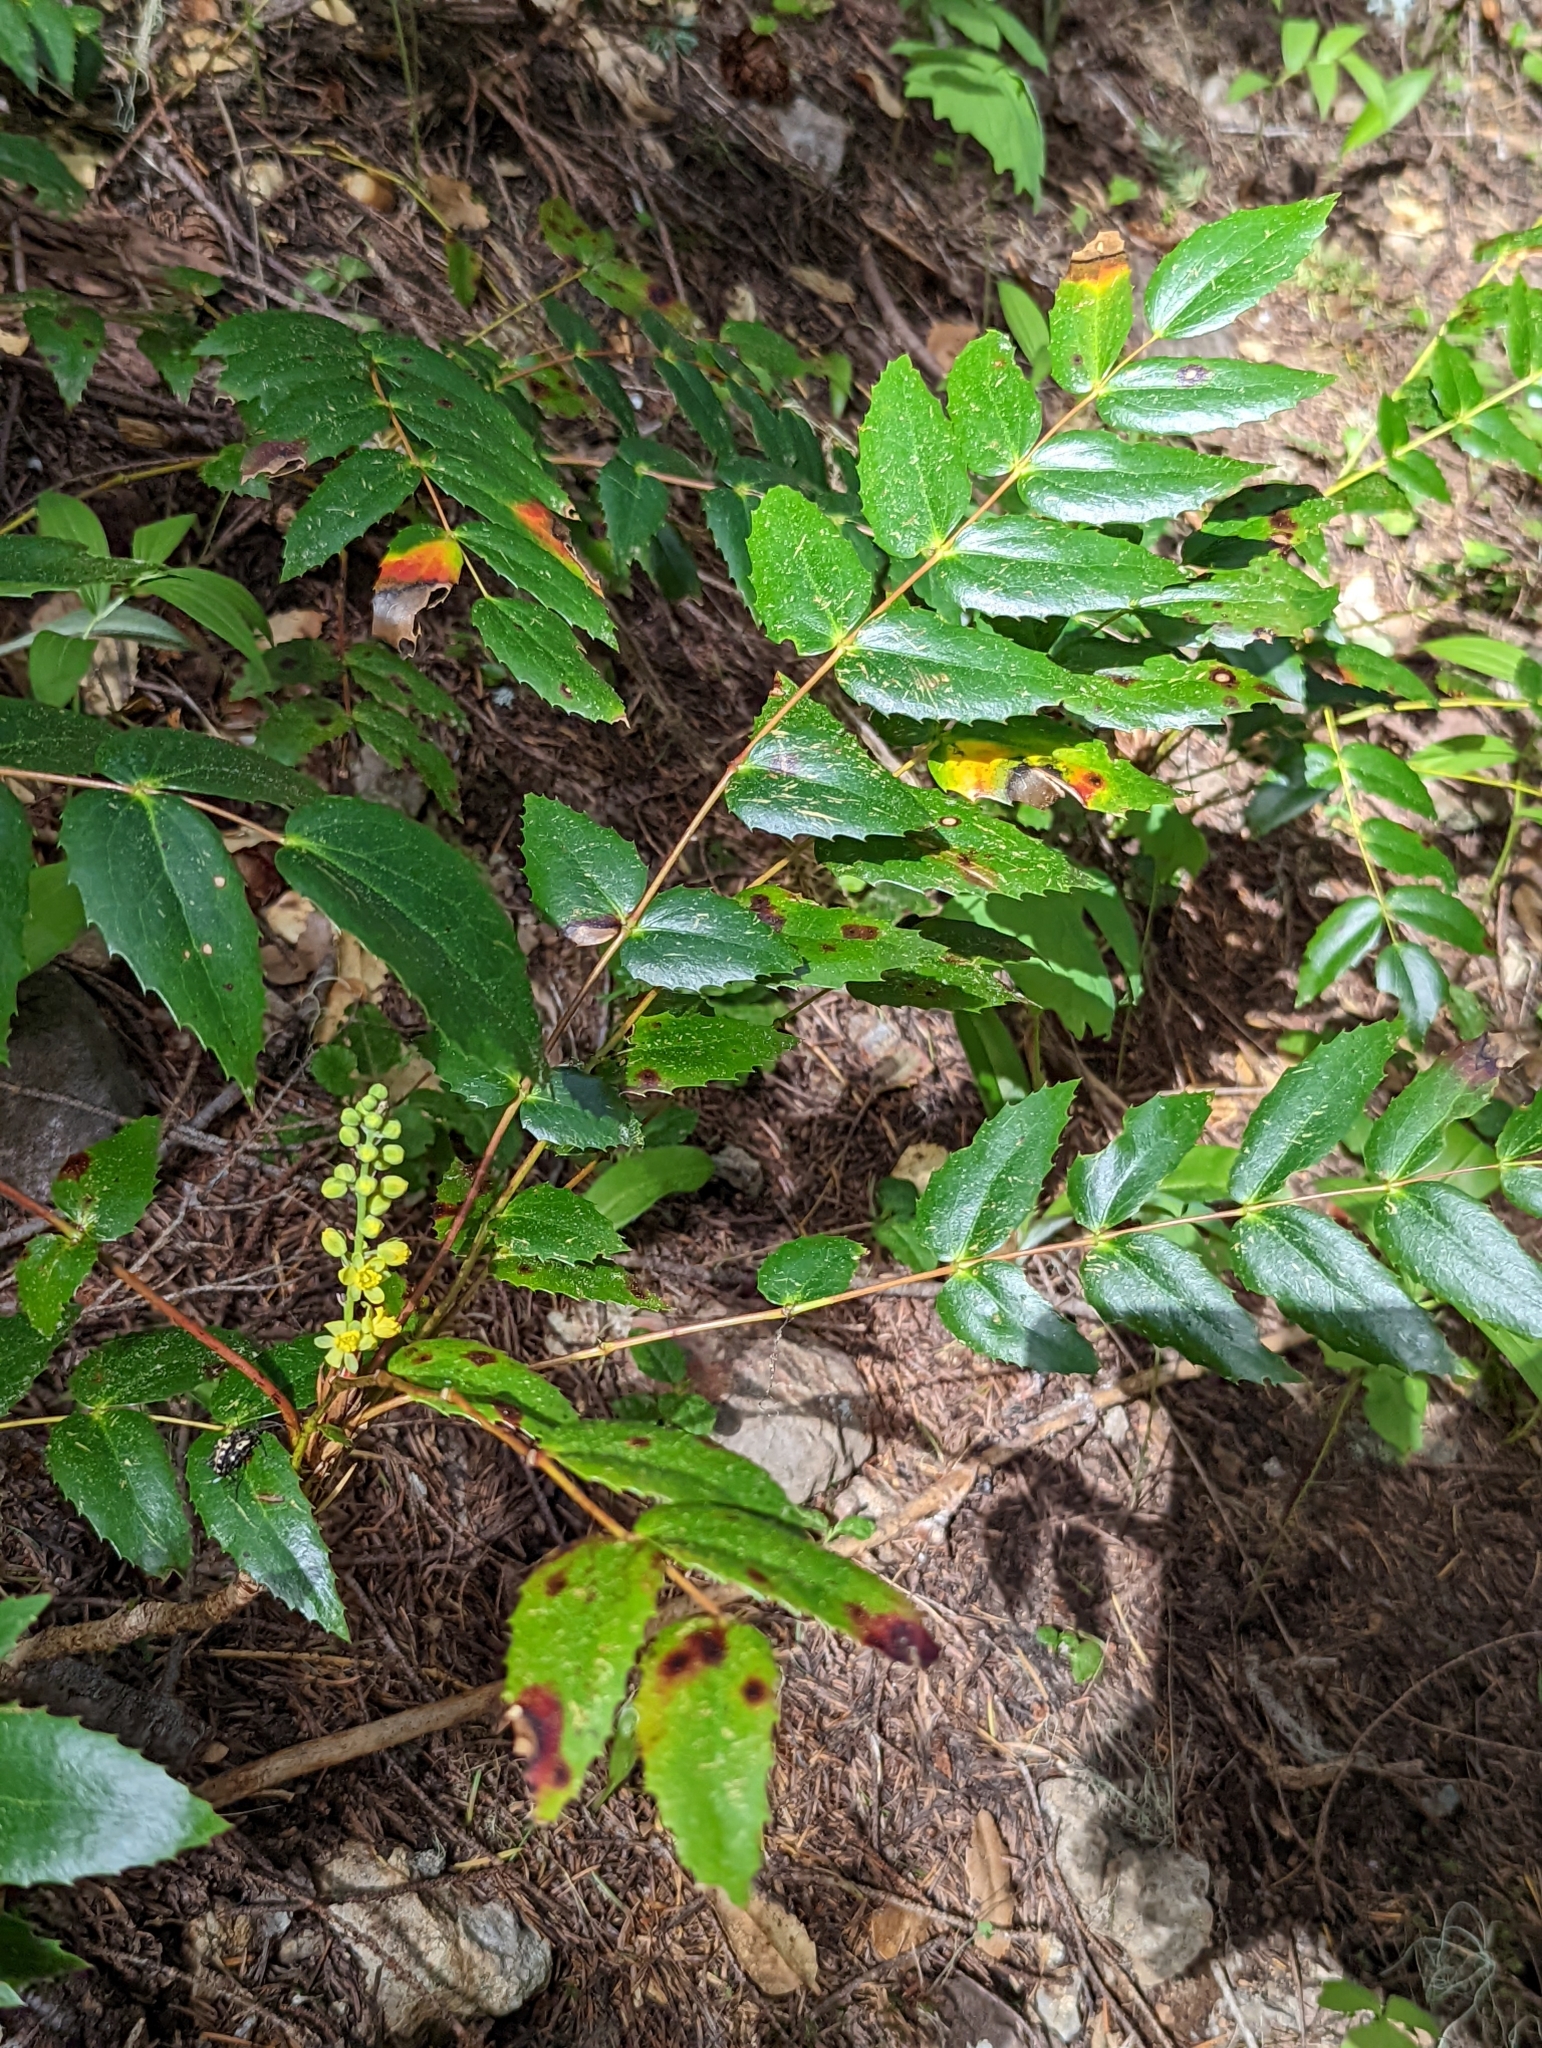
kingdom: Plantae
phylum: Tracheophyta
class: Magnoliopsida
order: Ranunculales
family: Berberidaceae
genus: Mahonia
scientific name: Mahonia nervosa
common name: Cascade oregon-grape
